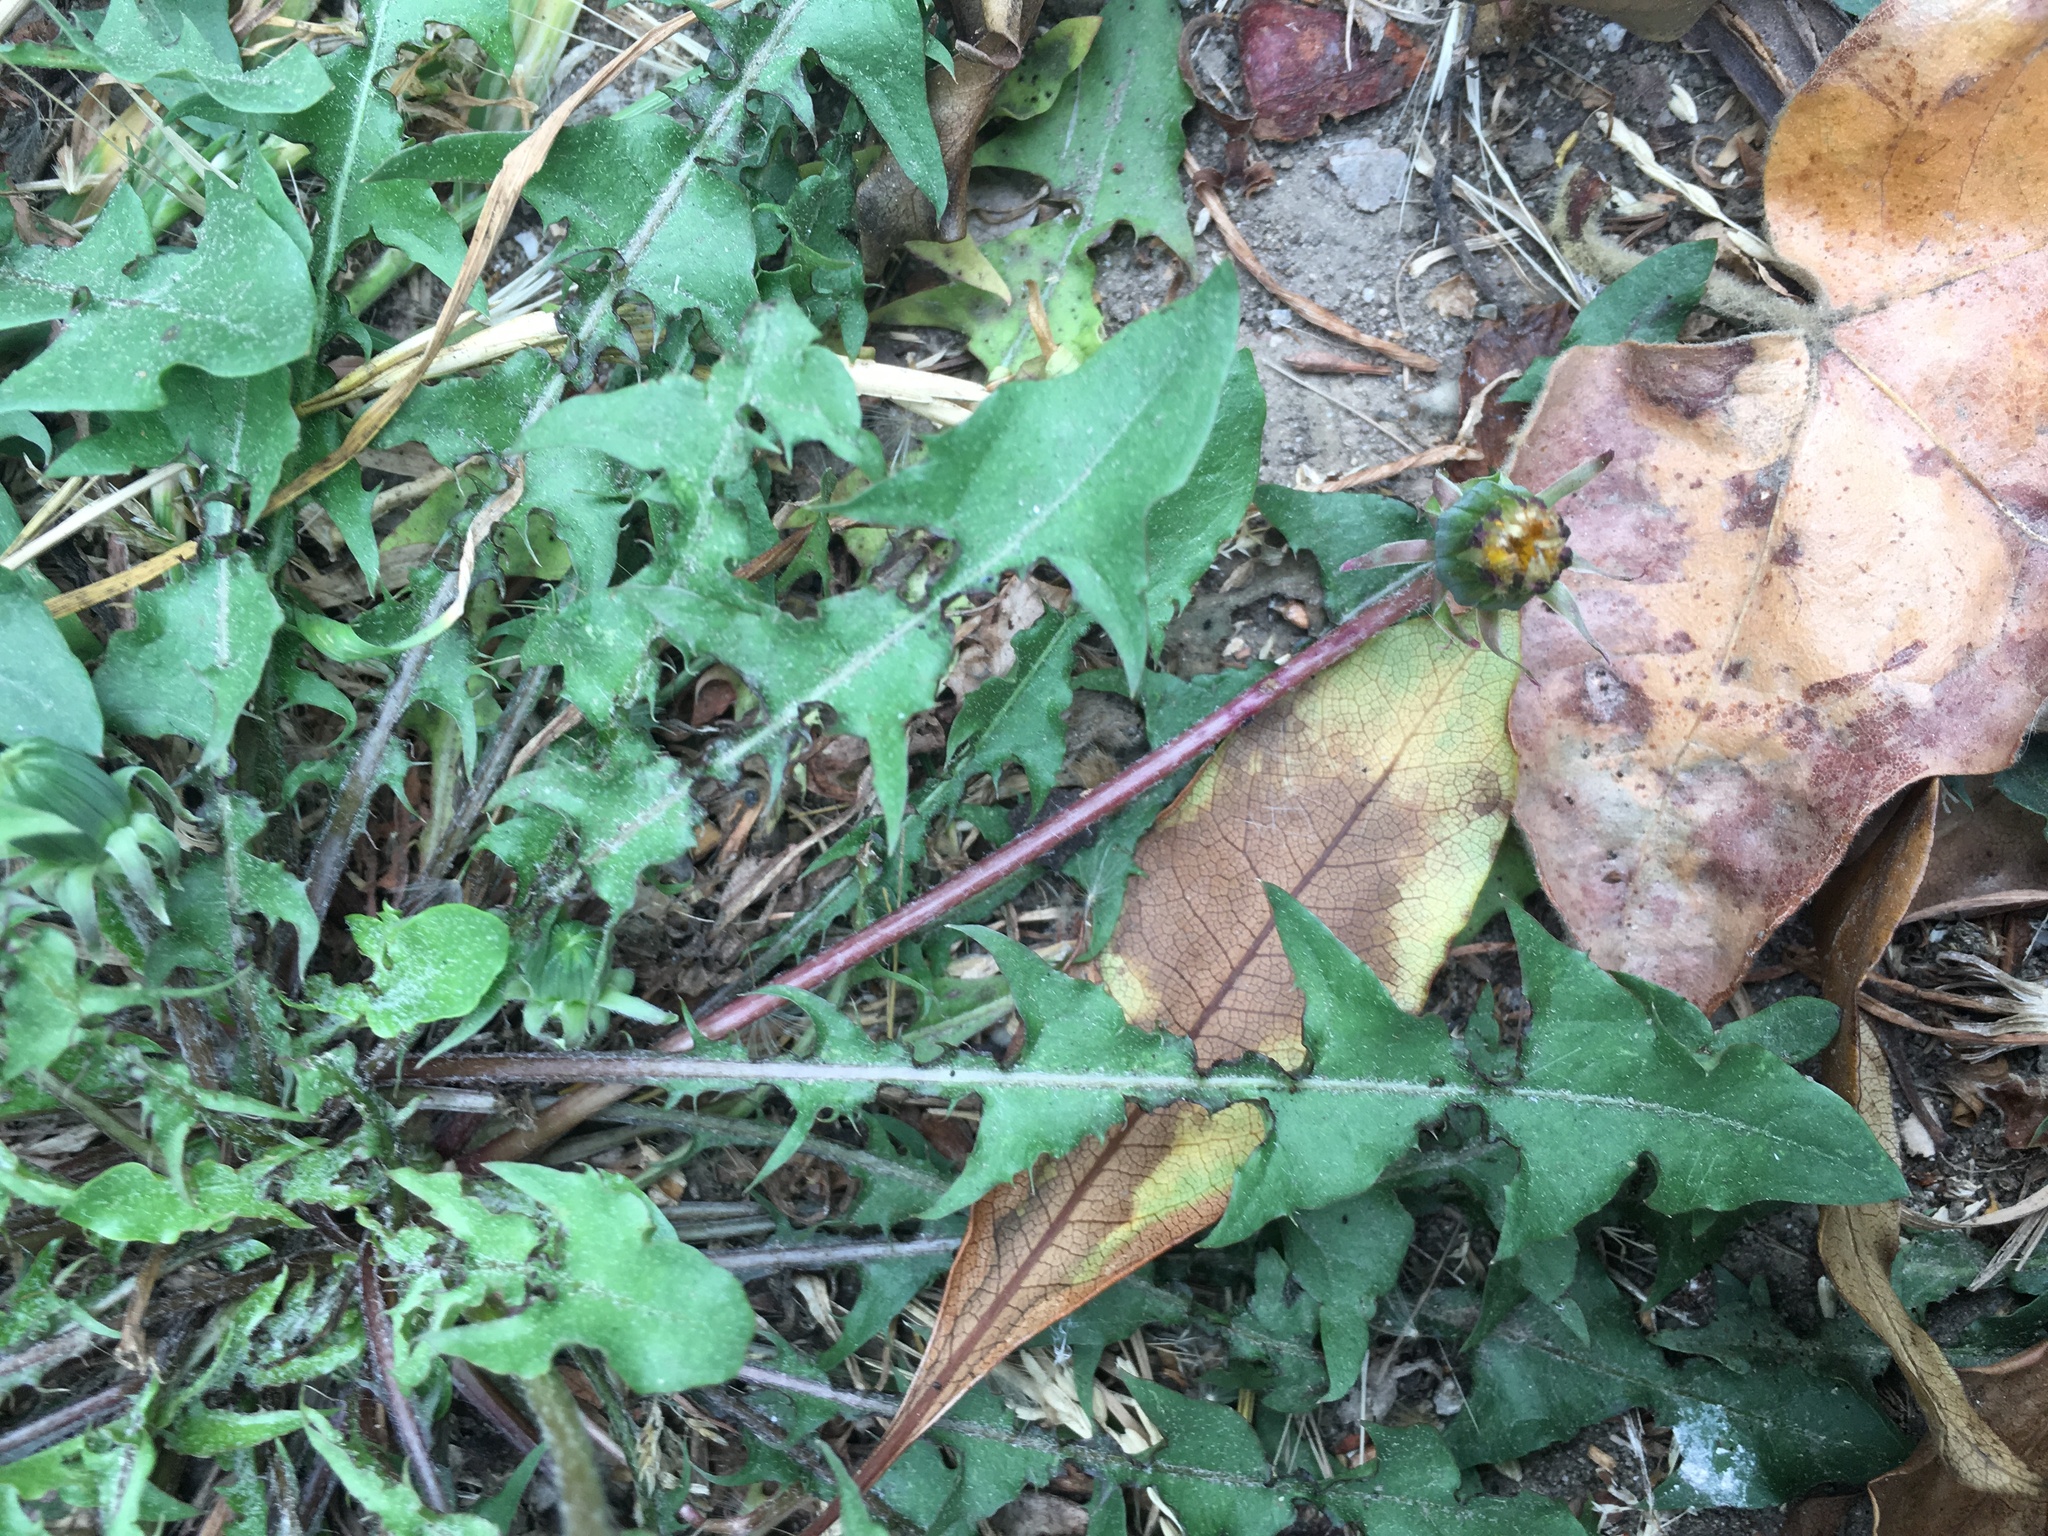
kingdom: Plantae
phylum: Tracheophyta
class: Magnoliopsida
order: Asterales
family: Asteraceae
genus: Taraxacum
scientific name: Taraxacum erythrospermum
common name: Rock dandelion
